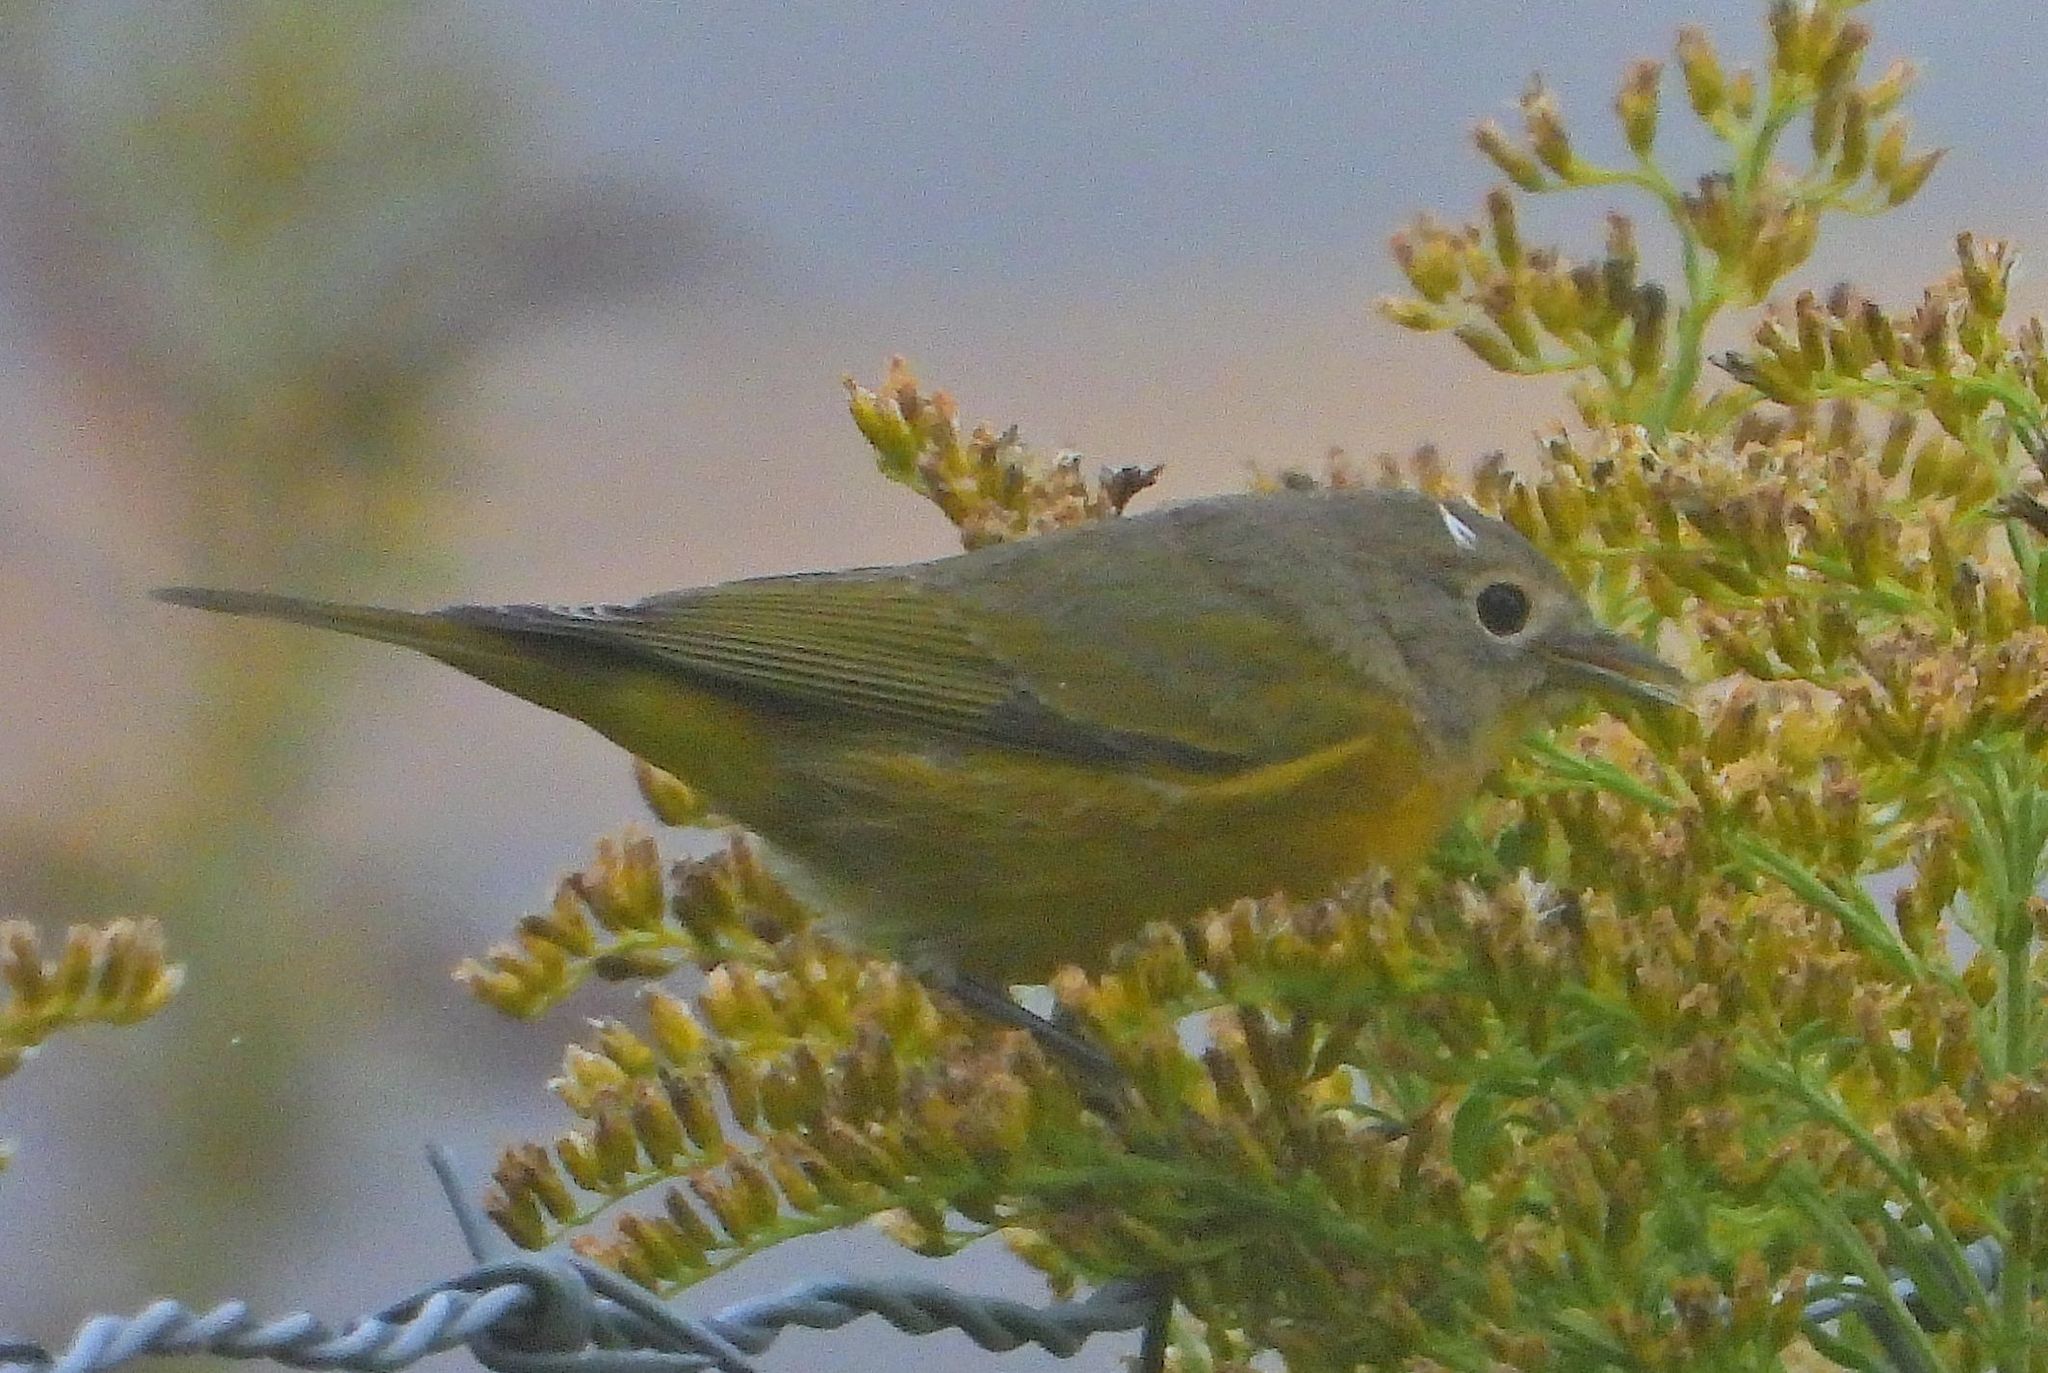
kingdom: Animalia
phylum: Chordata
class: Aves
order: Passeriformes
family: Parulidae
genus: Leiothlypis
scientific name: Leiothlypis ruficapilla
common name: Nashville warbler
